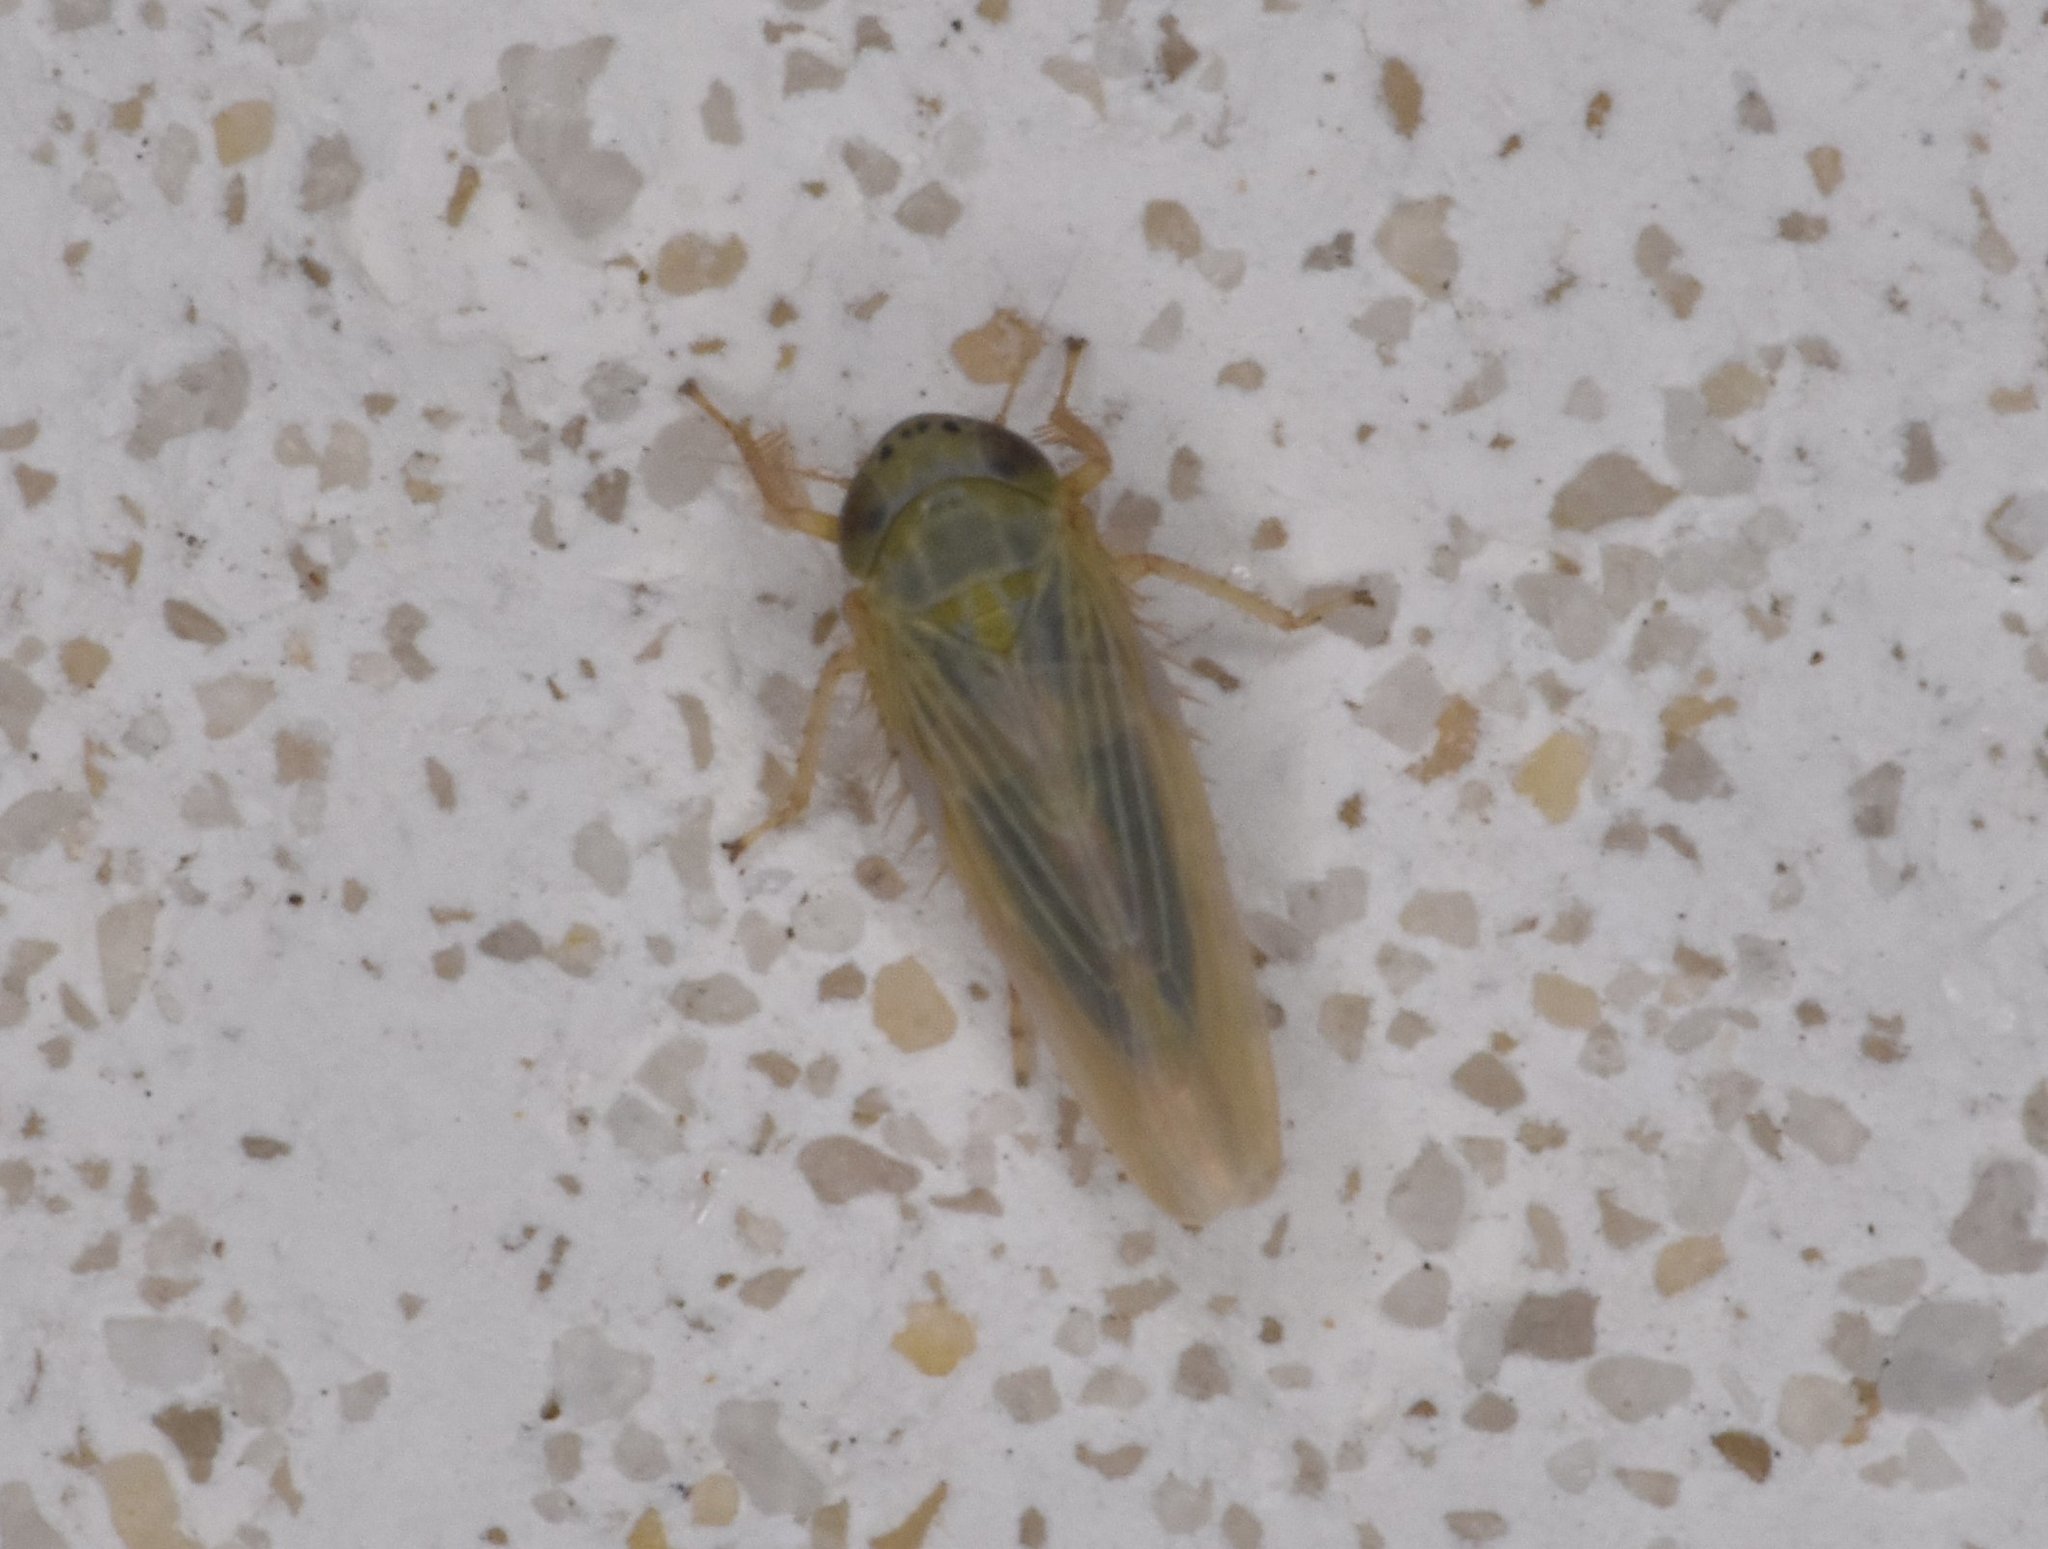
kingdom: Animalia
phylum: Arthropoda
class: Insecta
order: Hemiptera
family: Cicadellidae
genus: Graminella
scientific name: Graminella nigrifrons
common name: Blackfaced leafhopper
